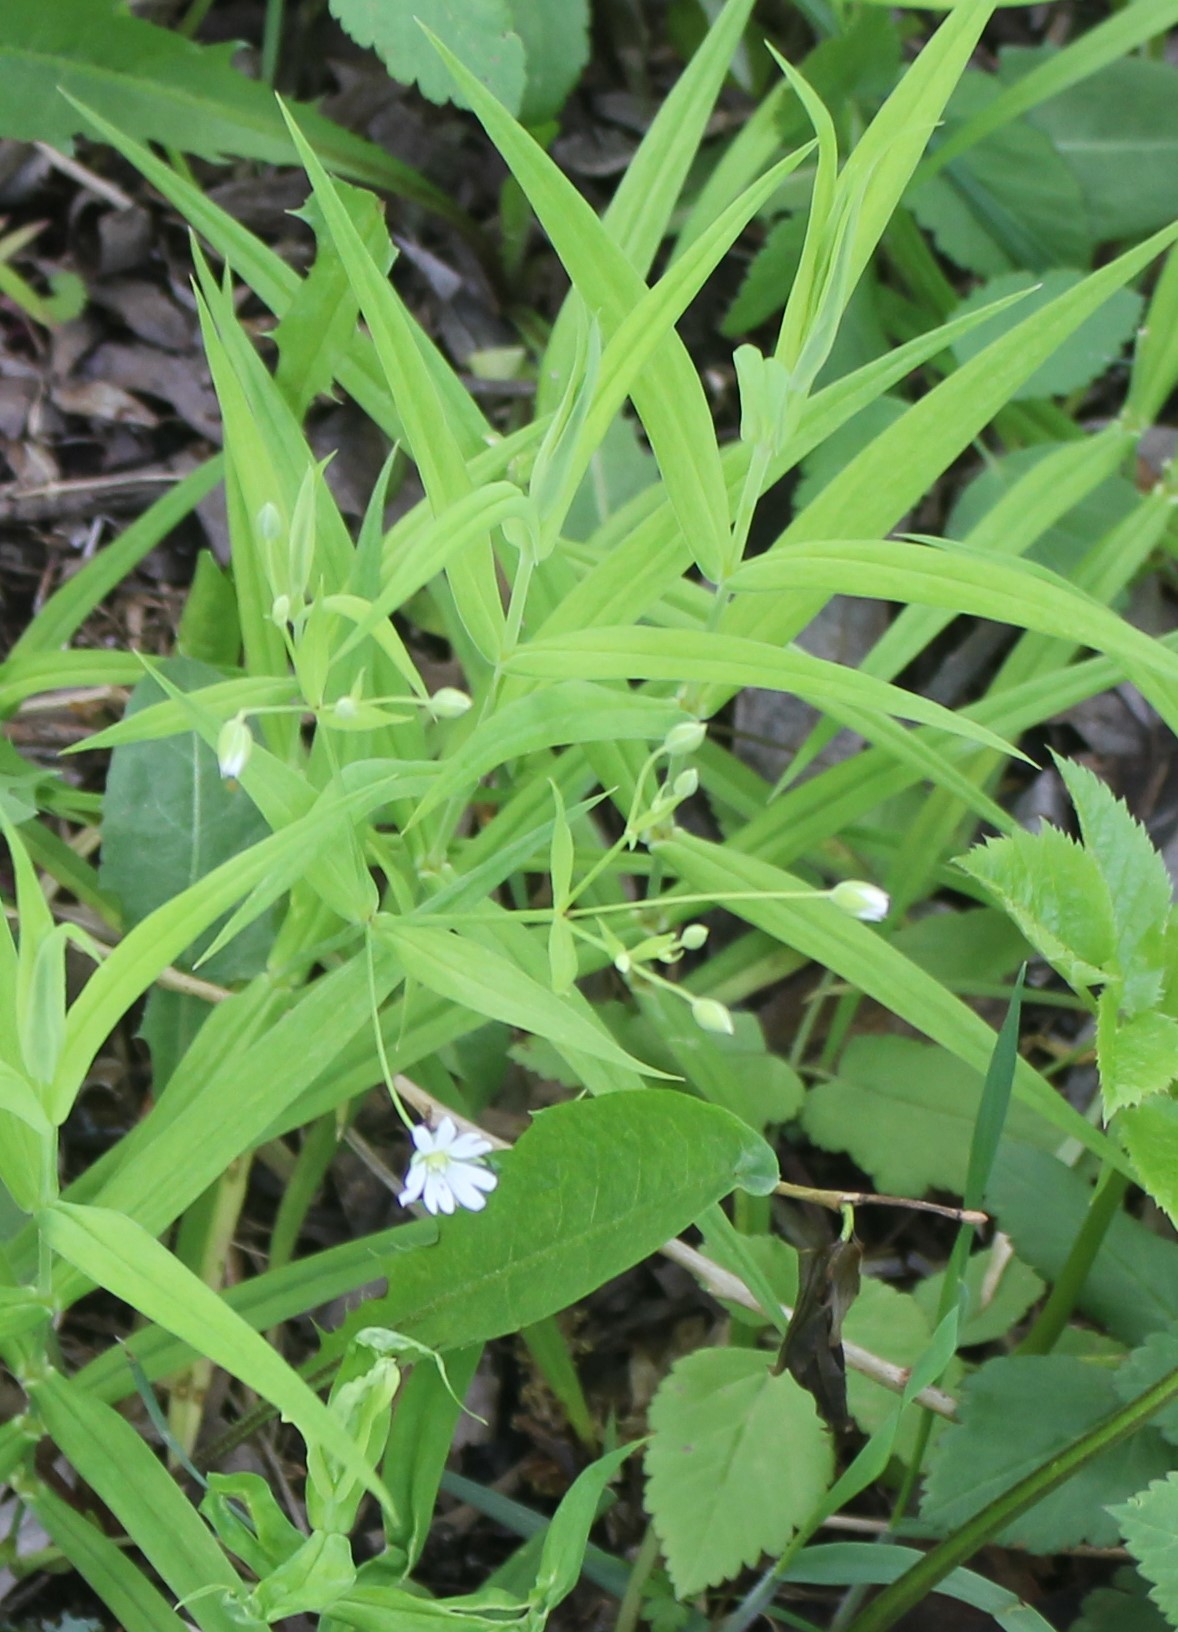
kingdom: Plantae
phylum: Tracheophyta
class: Magnoliopsida
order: Caryophyllales
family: Caryophyllaceae
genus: Rabelera
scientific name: Rabelera holostea
